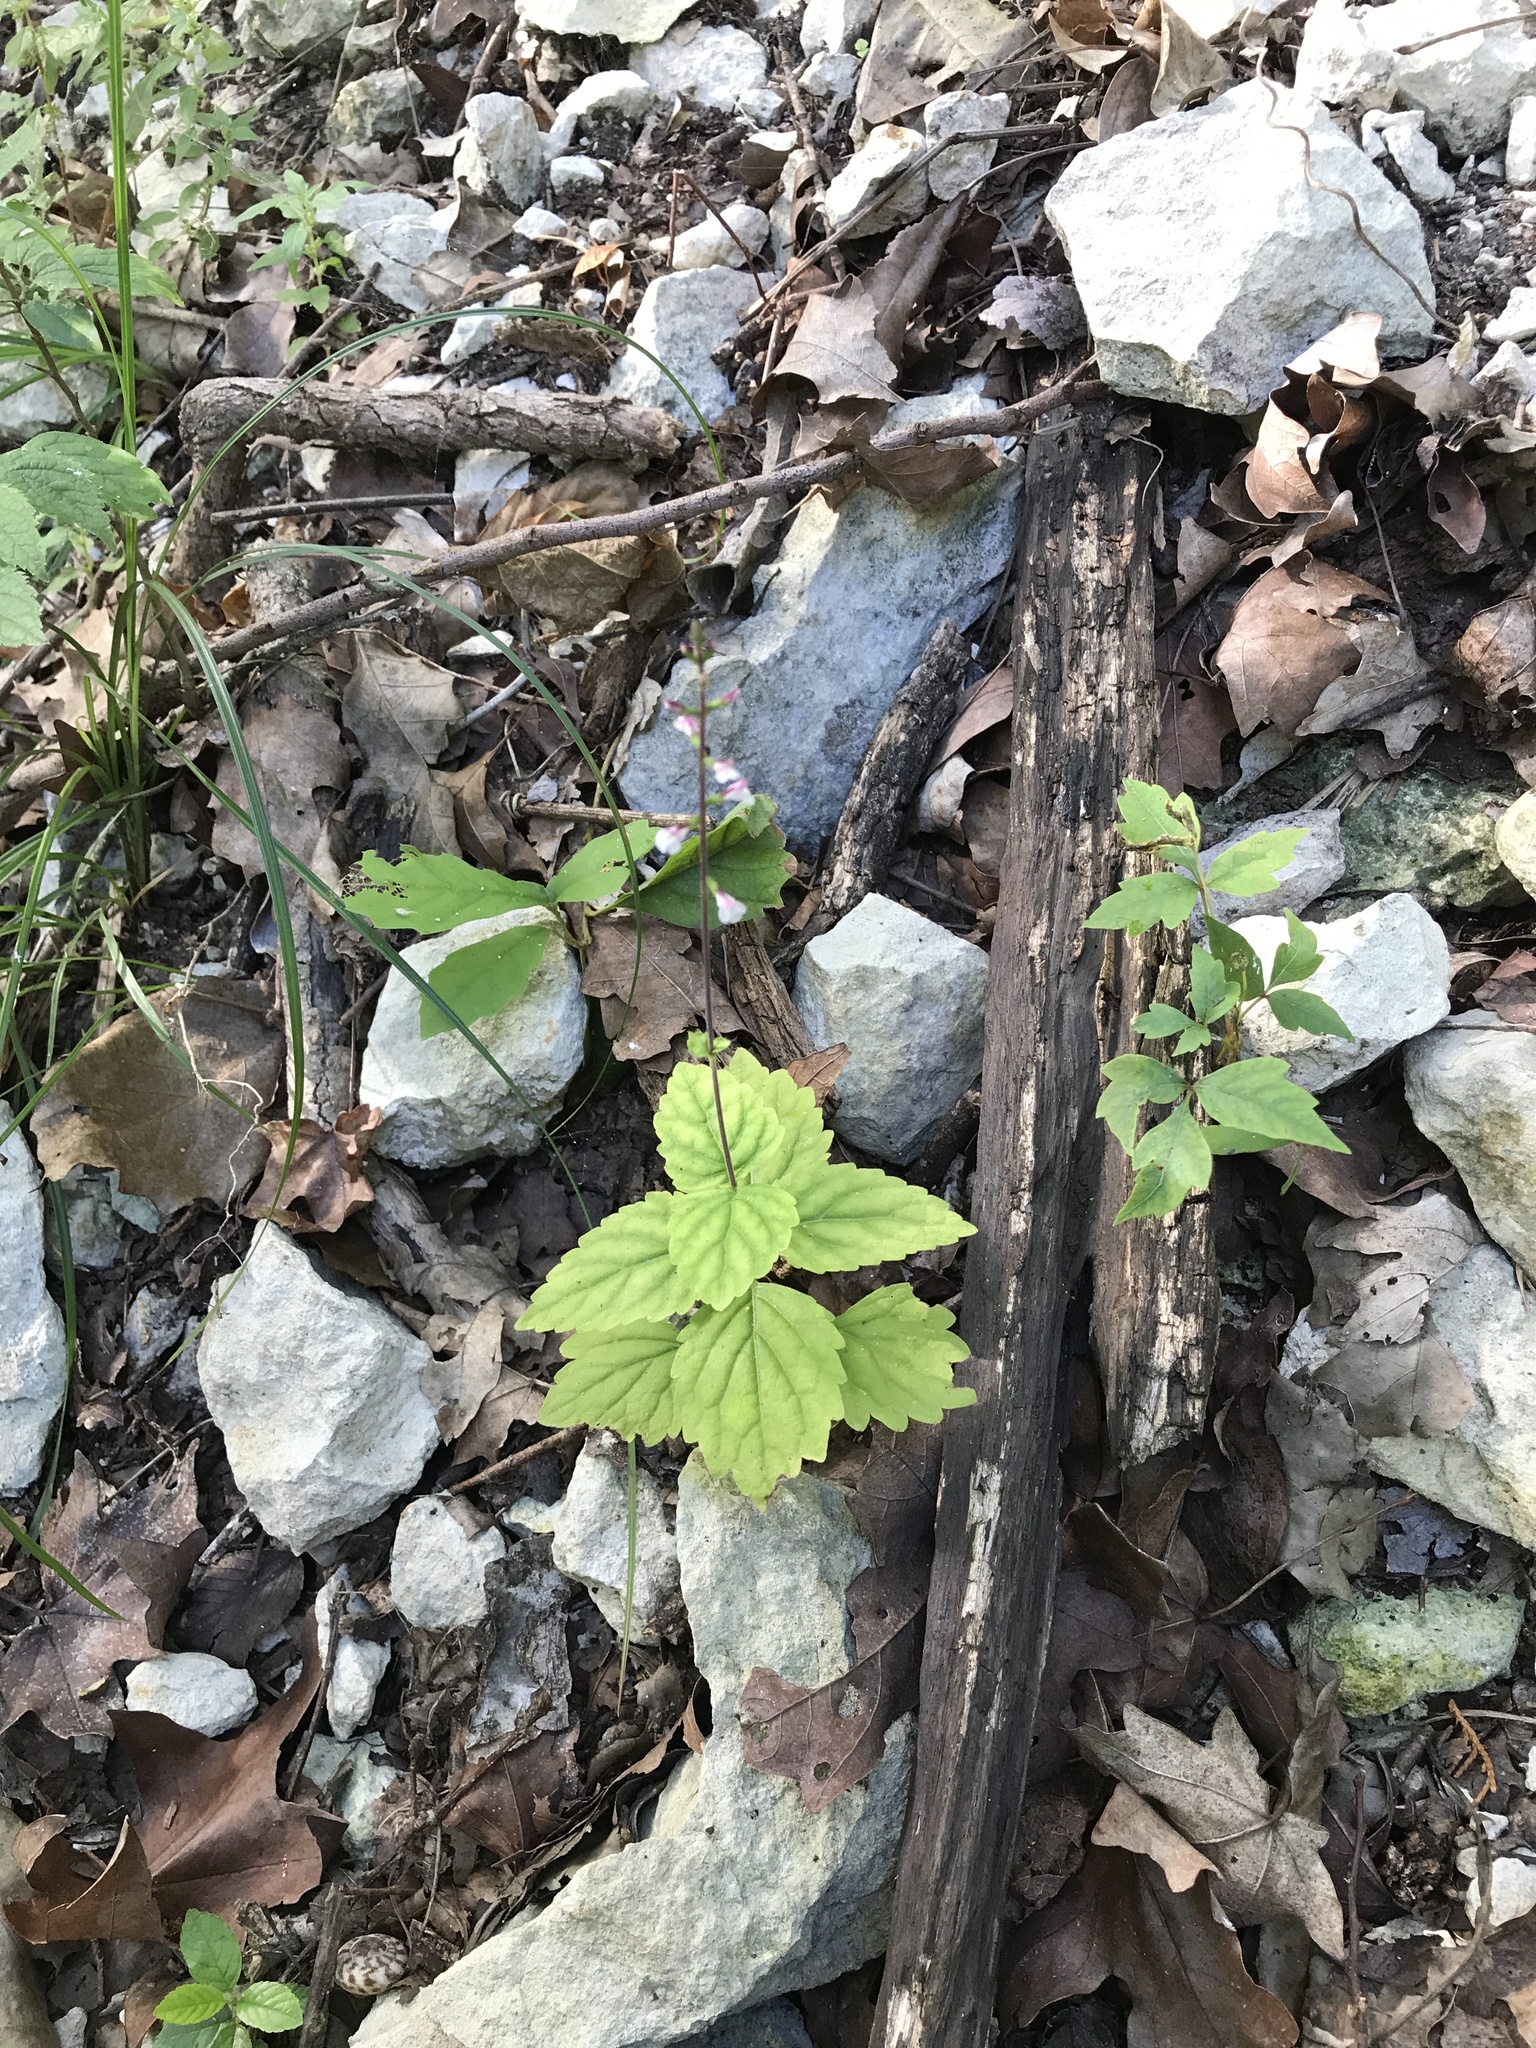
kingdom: Plantae
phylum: Tracheophyta
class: Magnoliopsida
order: Lamiales
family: Phrymaceae
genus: Phryma
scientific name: Phryma leptostachya
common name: American lopseed
